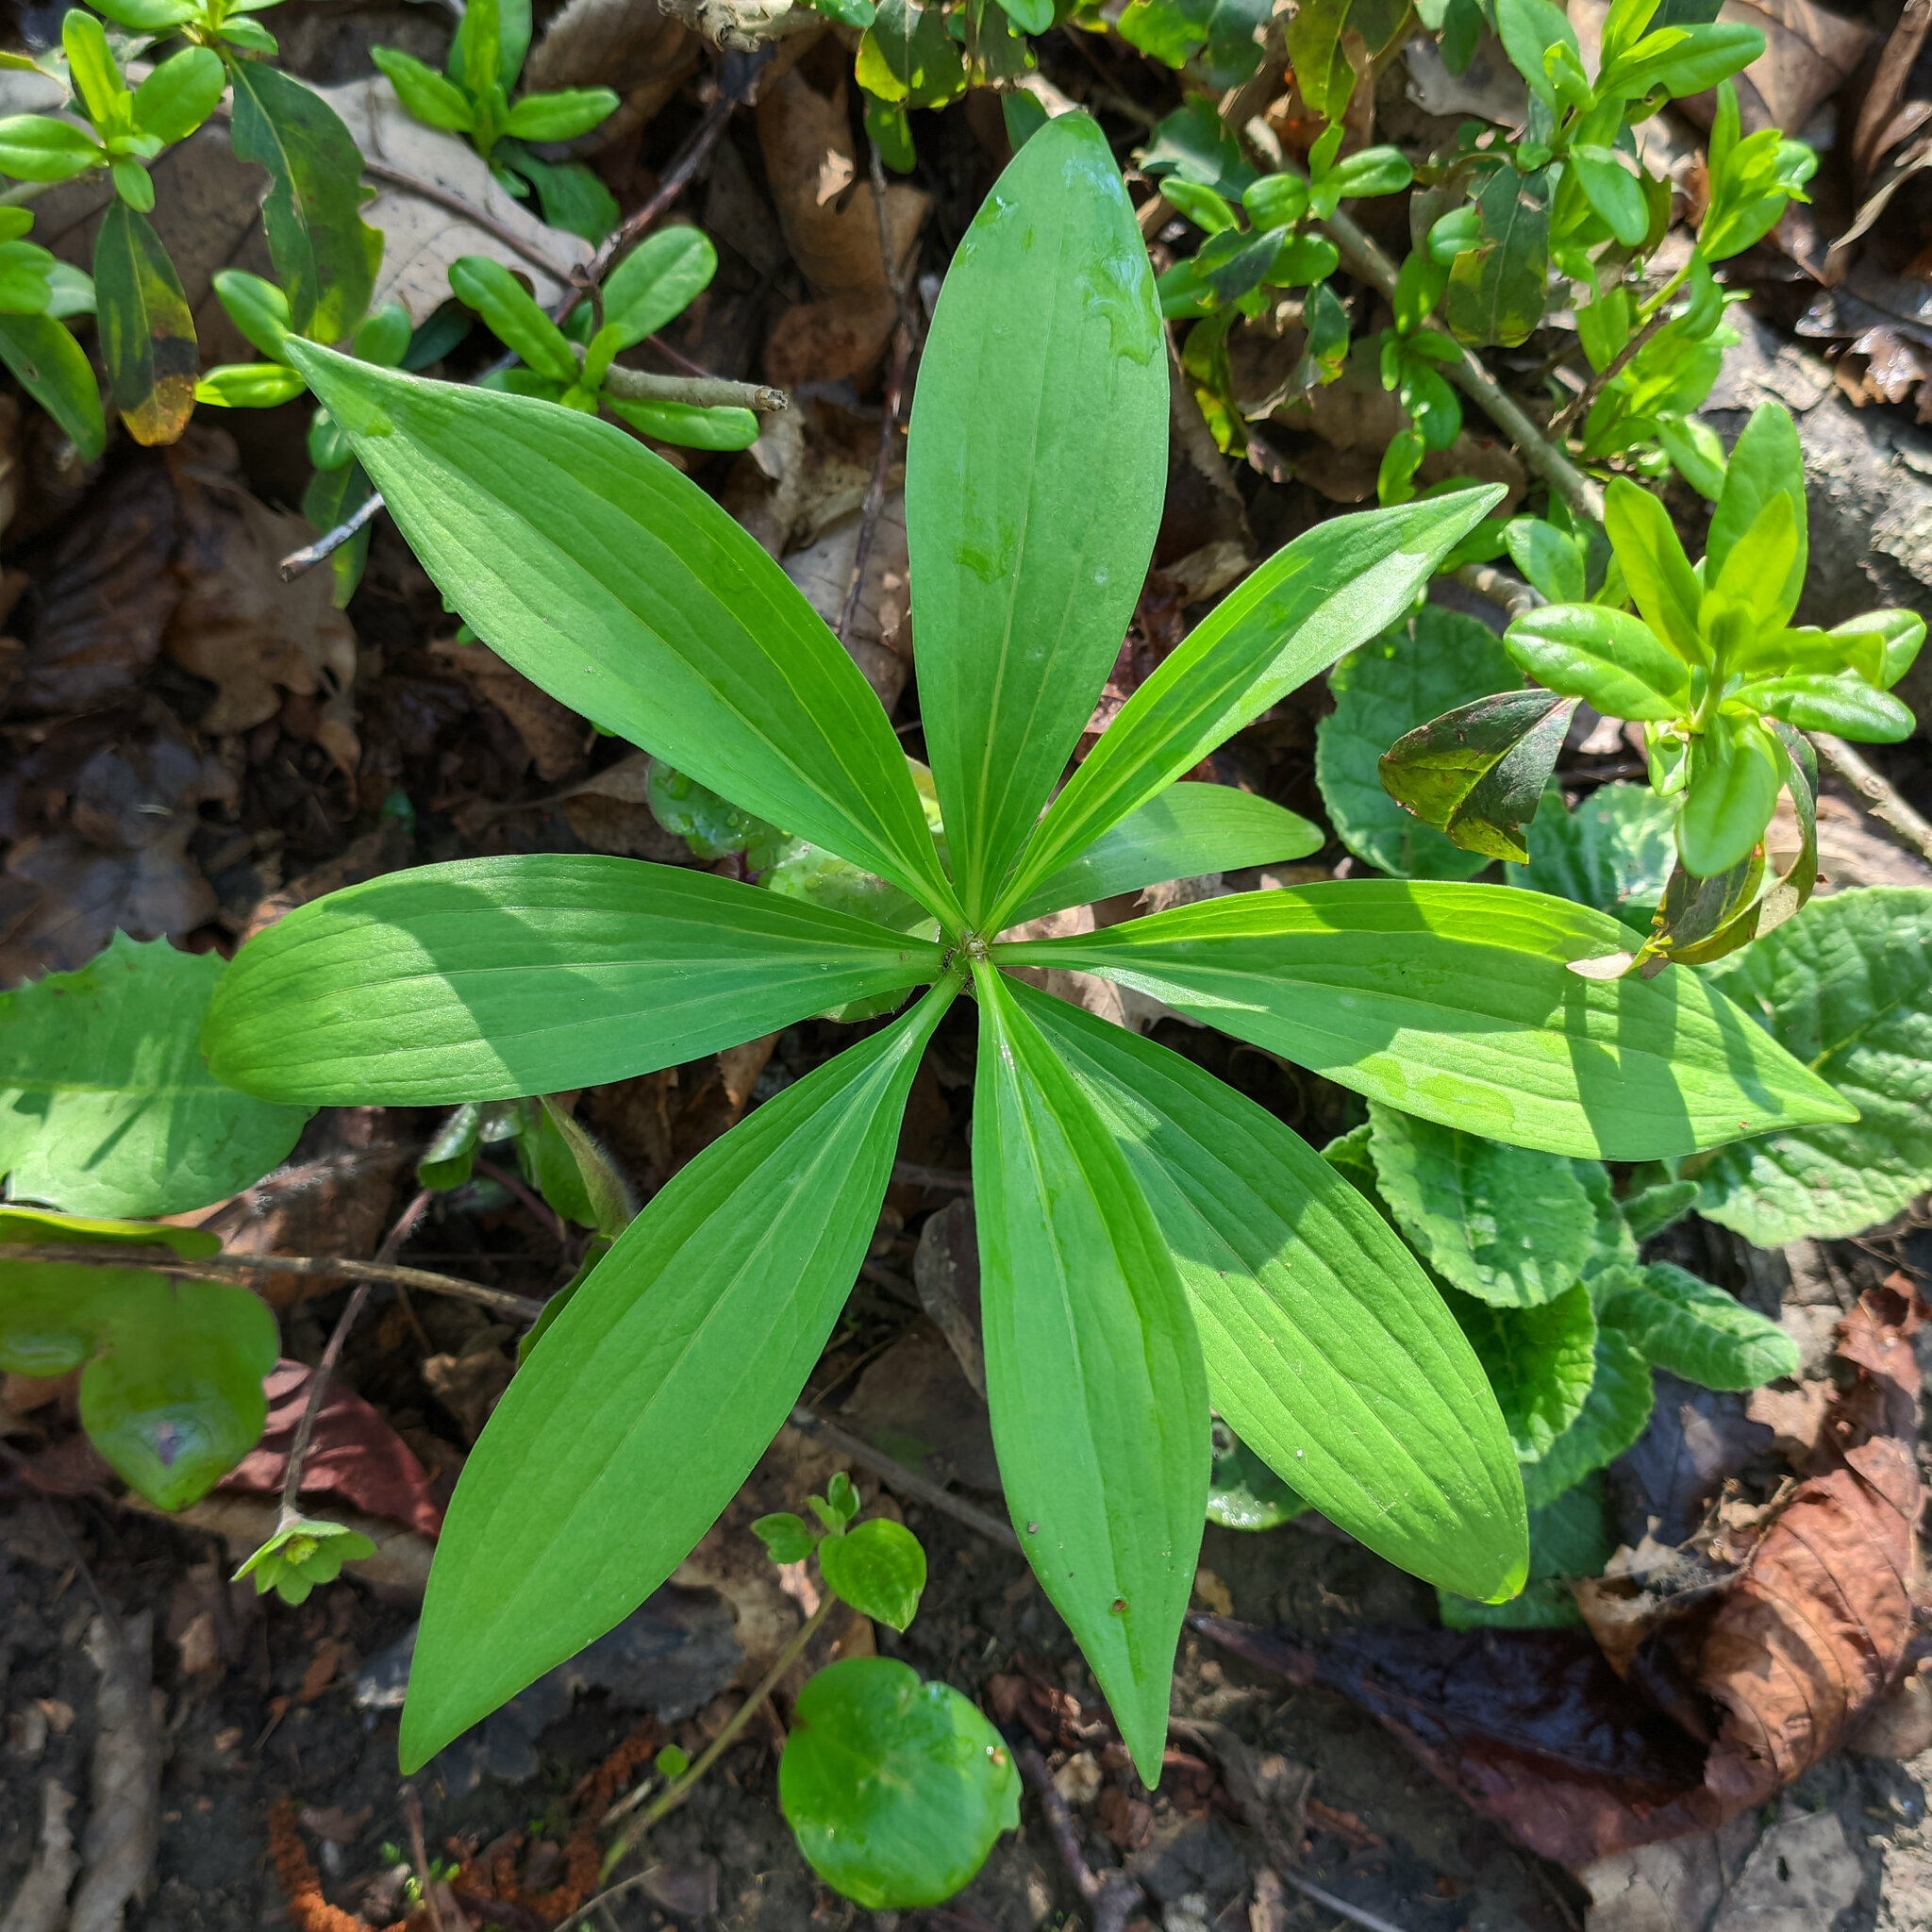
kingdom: Plantae
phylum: Tracheophyta
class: Liliopsida
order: Liliales
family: Liliaceae
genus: Lilium
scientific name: Lilium martagon
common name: Martagon lily
